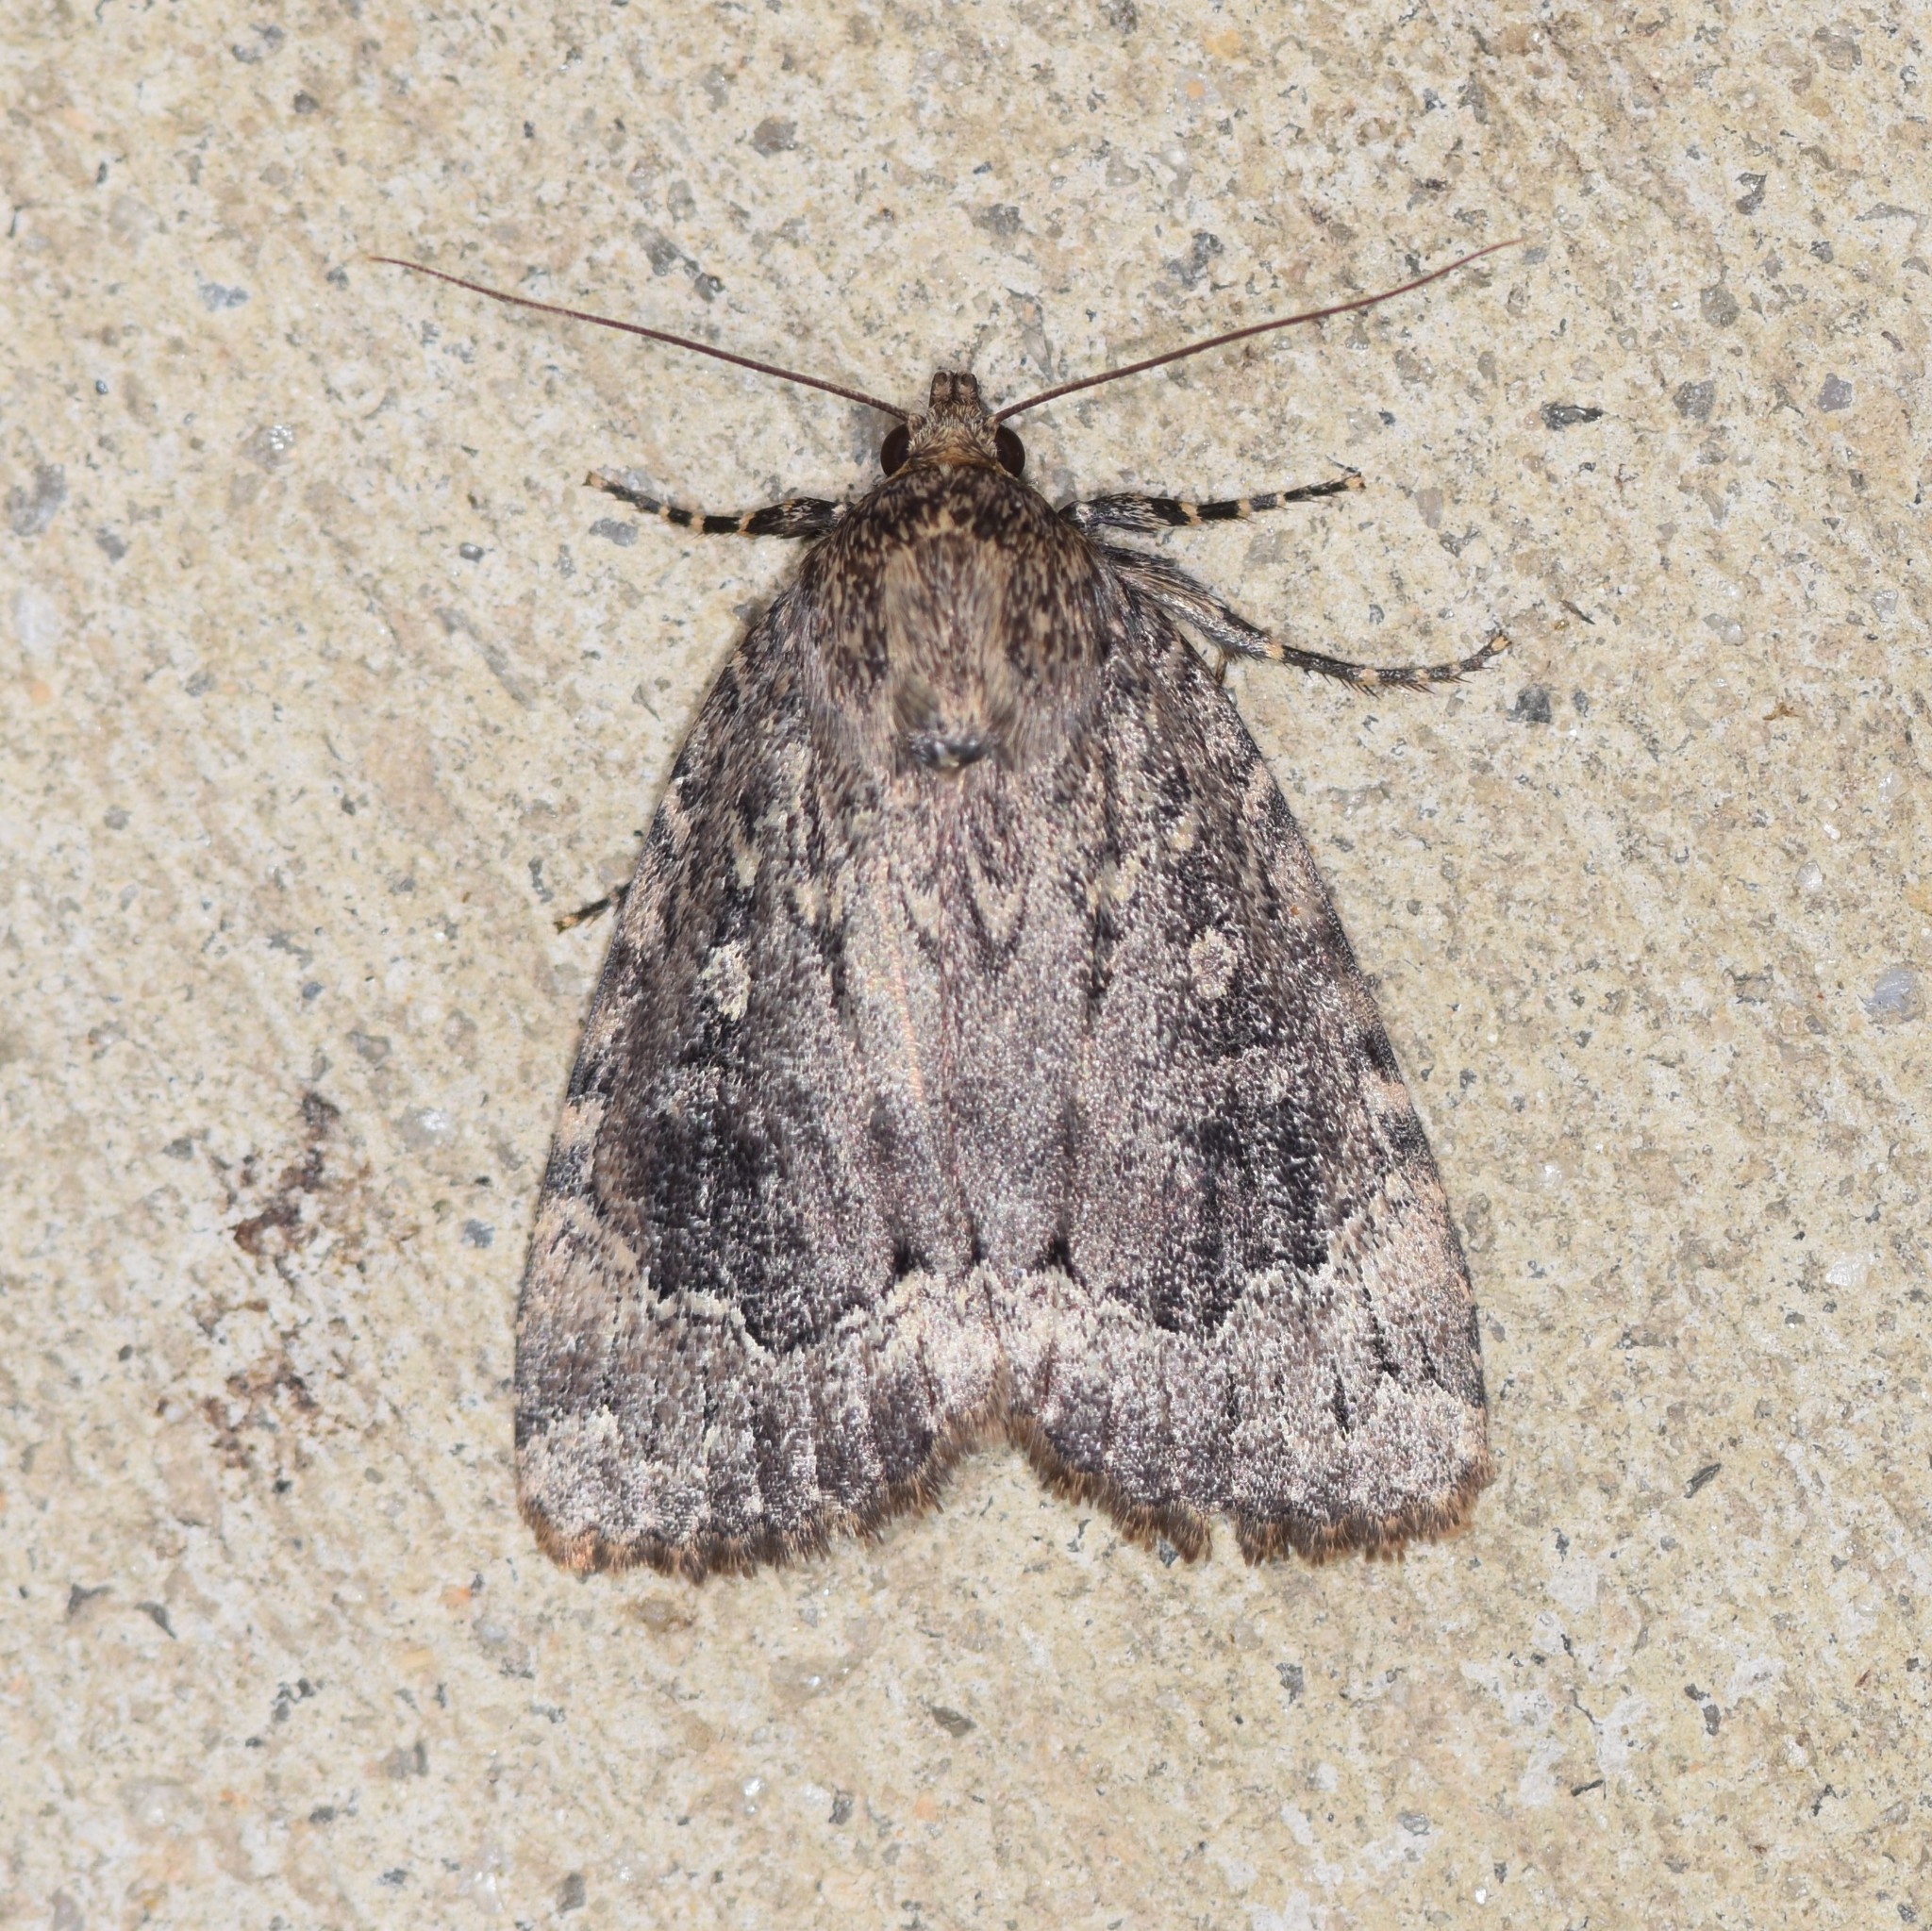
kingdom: Animalia
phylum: Arthropoda
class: Insecta
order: Lepidoptera
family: Noctuidae
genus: Amphipyra
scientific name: Amphipyra pyramidoides
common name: American copper underwing
